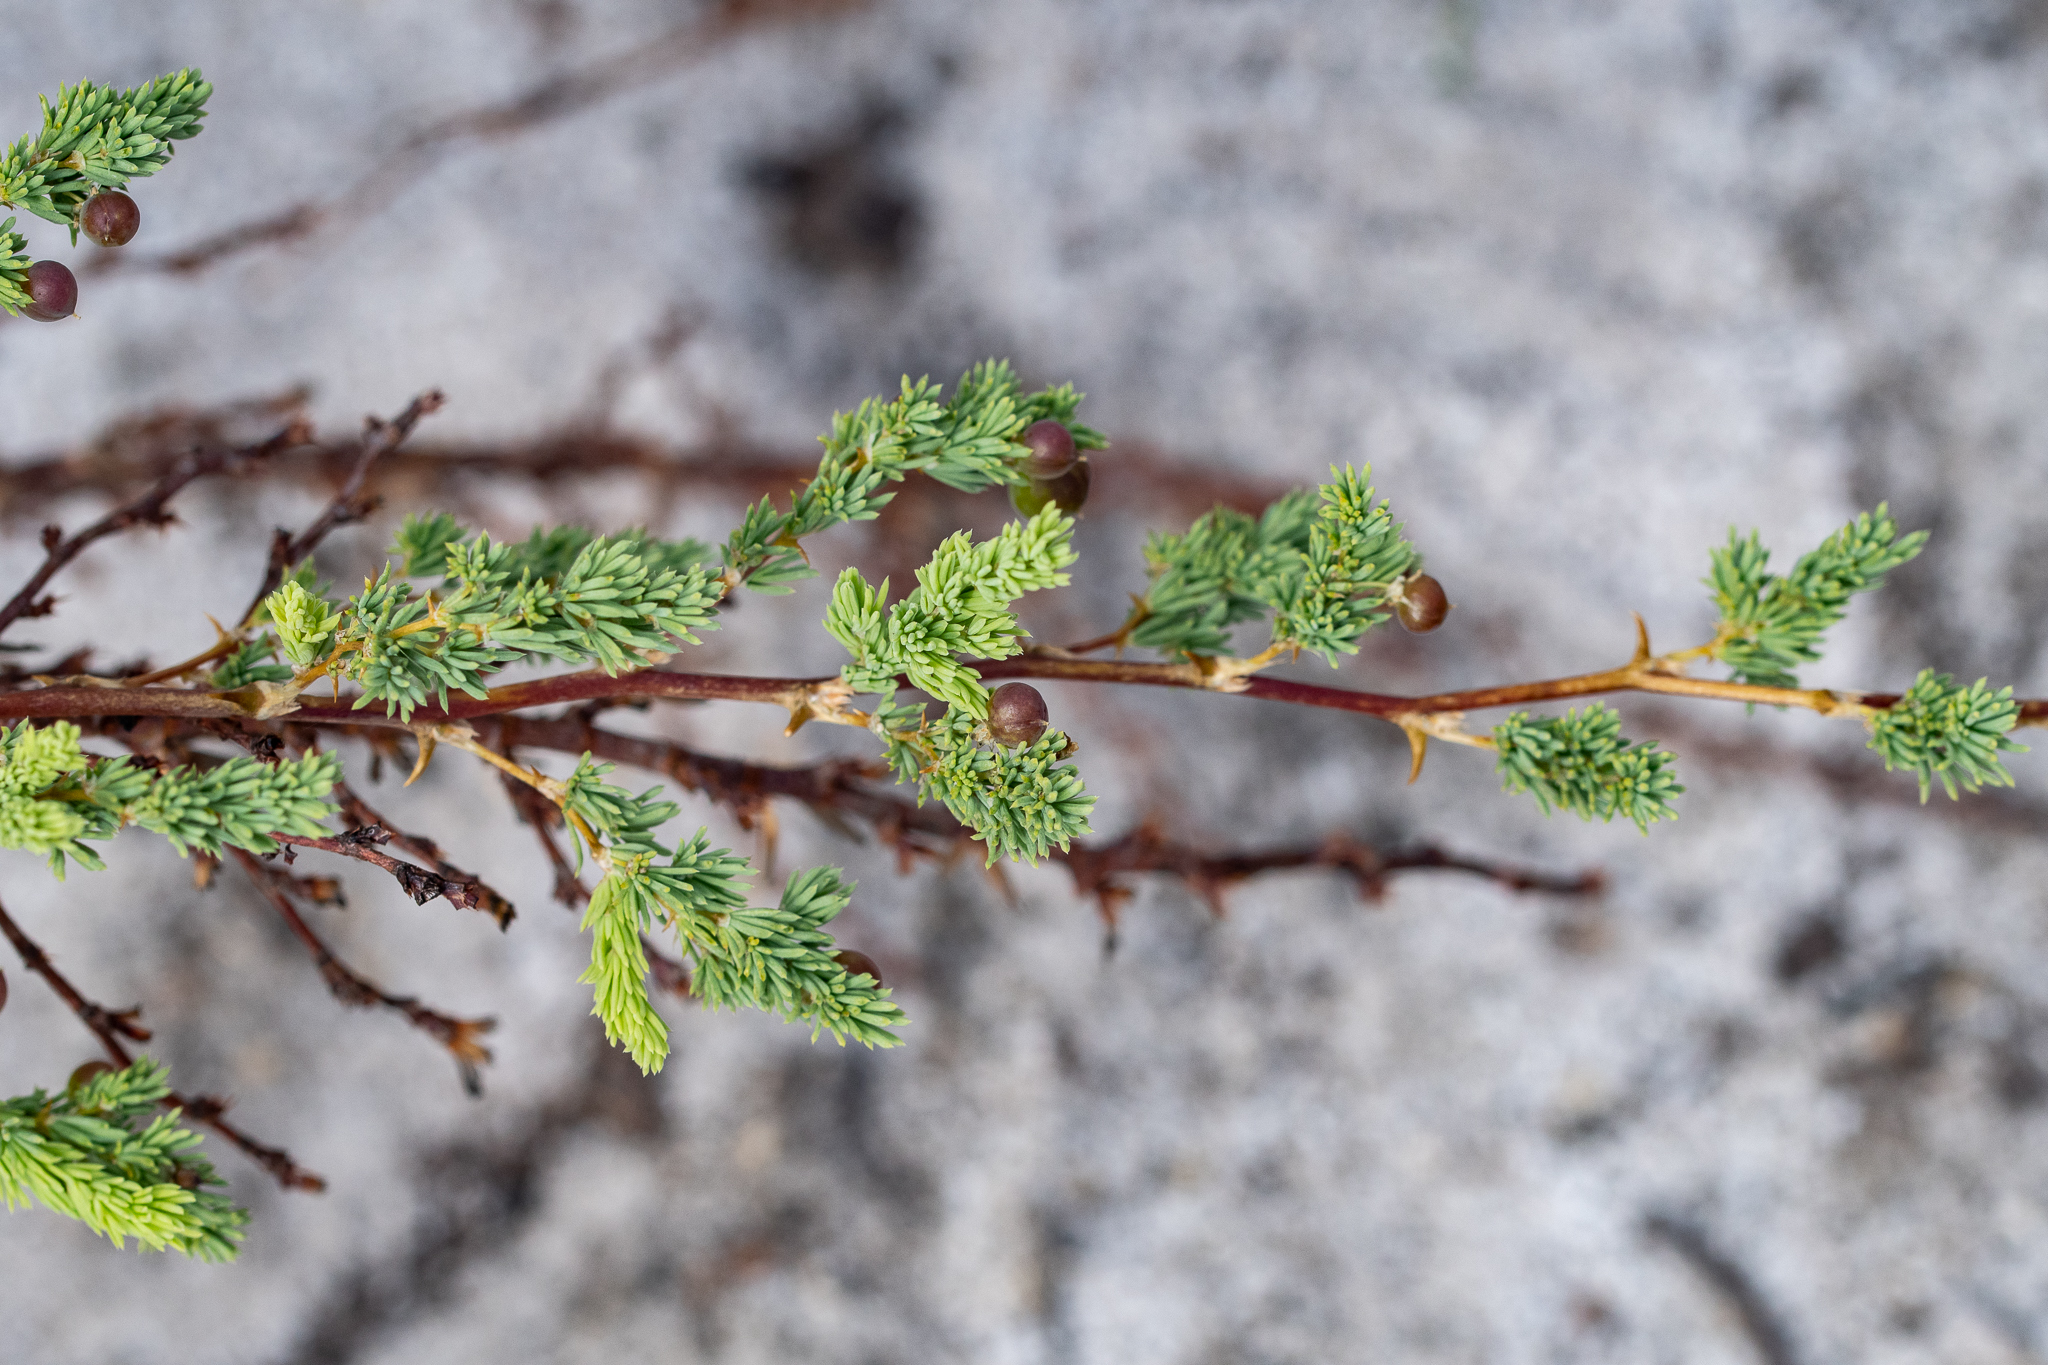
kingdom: Plantae
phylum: Tracheophyta
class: Liliopsida
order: Asparagales
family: Asparagaceae
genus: Asparagus
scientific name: Asparagus rubicundus
